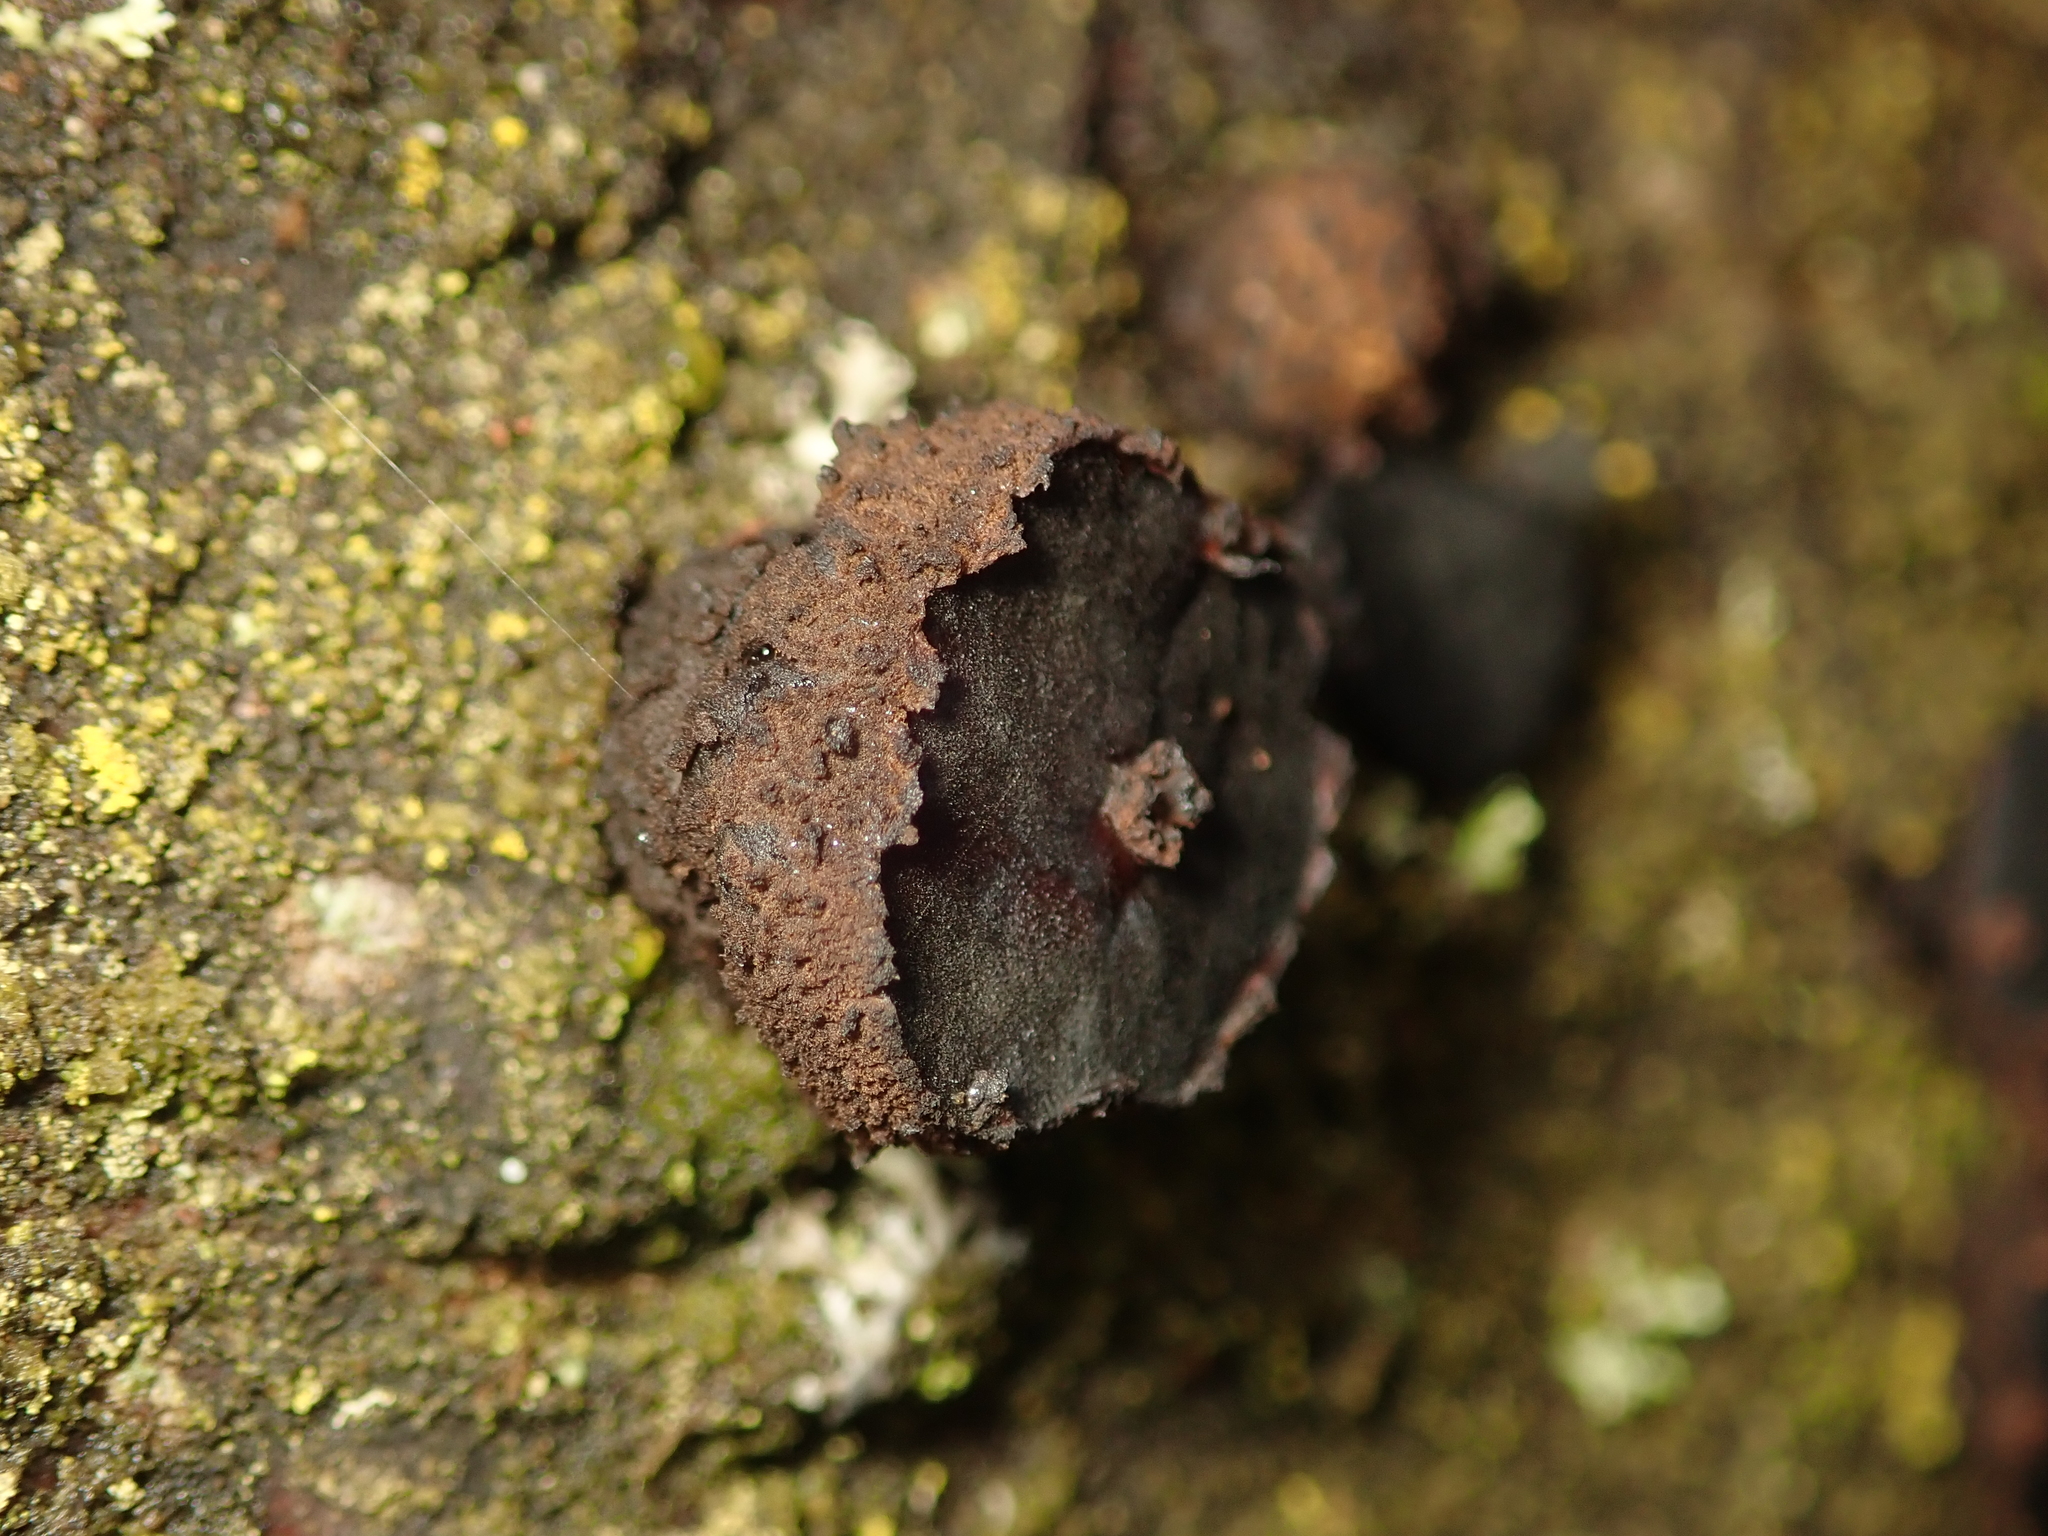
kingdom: Fungi
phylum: Ascomycota
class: Leotiomycetes
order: Phacidiales
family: Phacidiaceae
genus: Bulgaria
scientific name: Bulgaria inquinans
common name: Black bulgar
